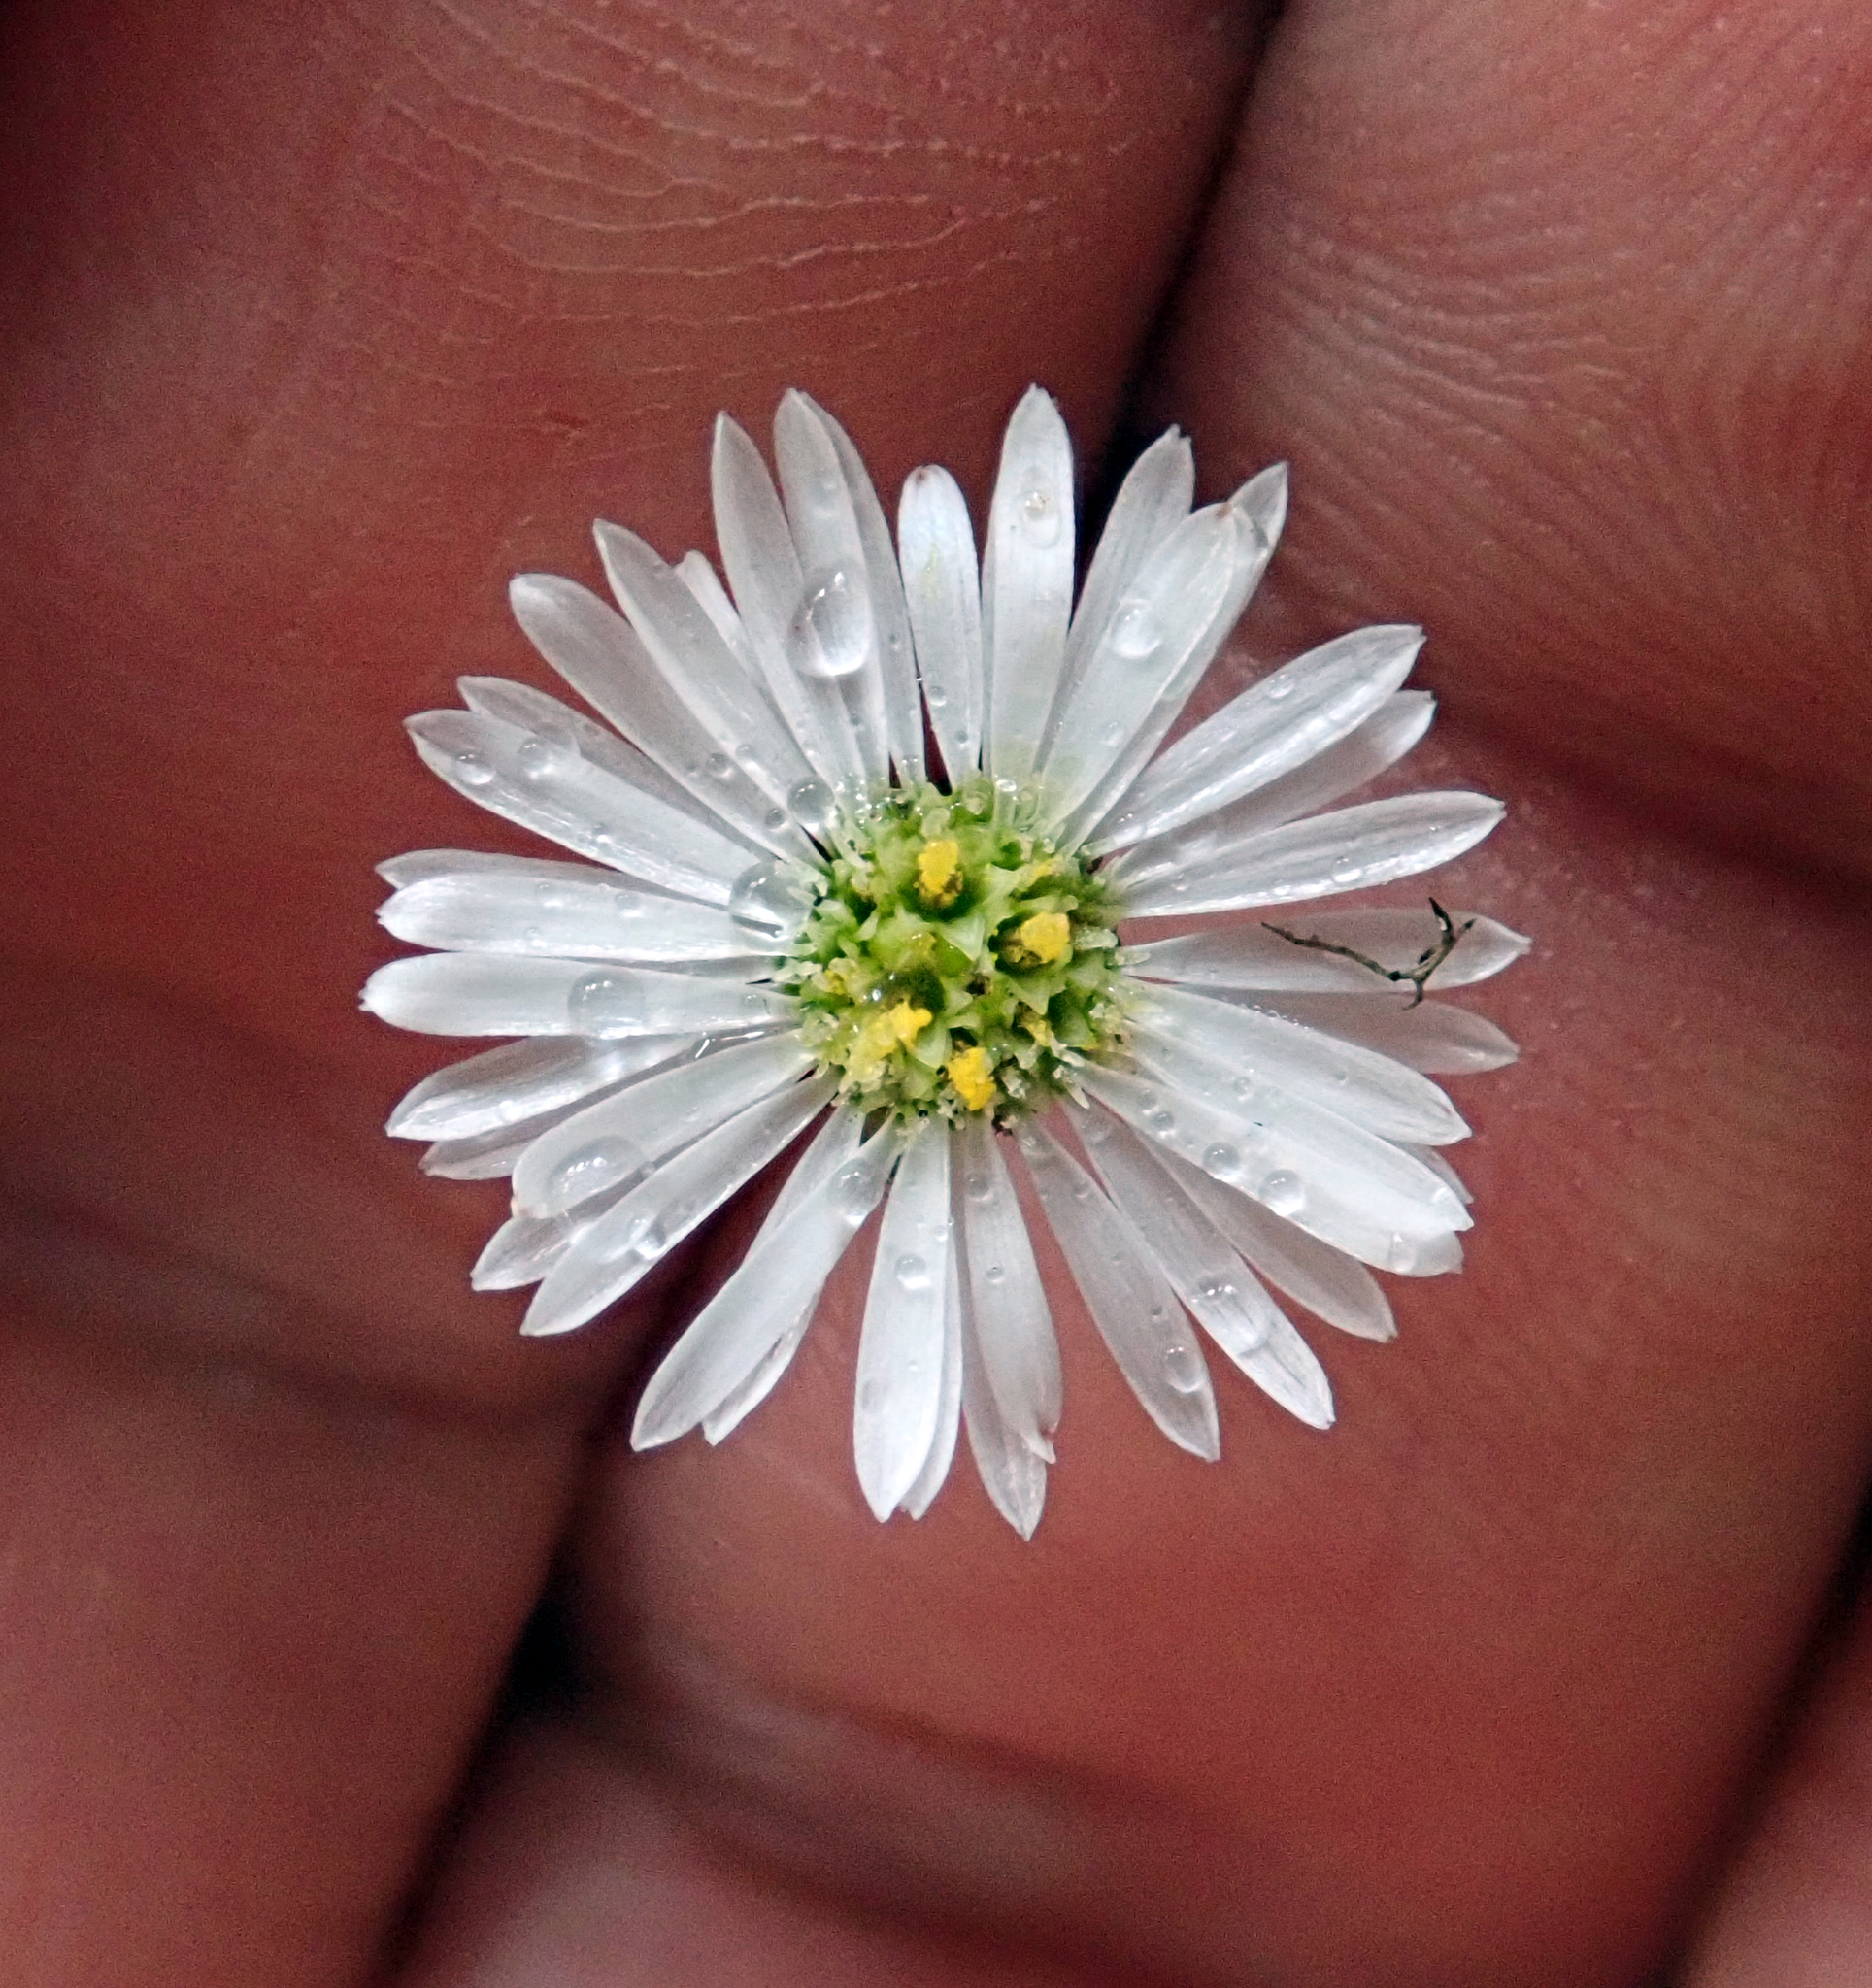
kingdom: Plantae
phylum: Tracheophyta
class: Magnoliopsida
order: Asterales
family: Asteraceae
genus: Lagenophora
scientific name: Lagenophora pumila
